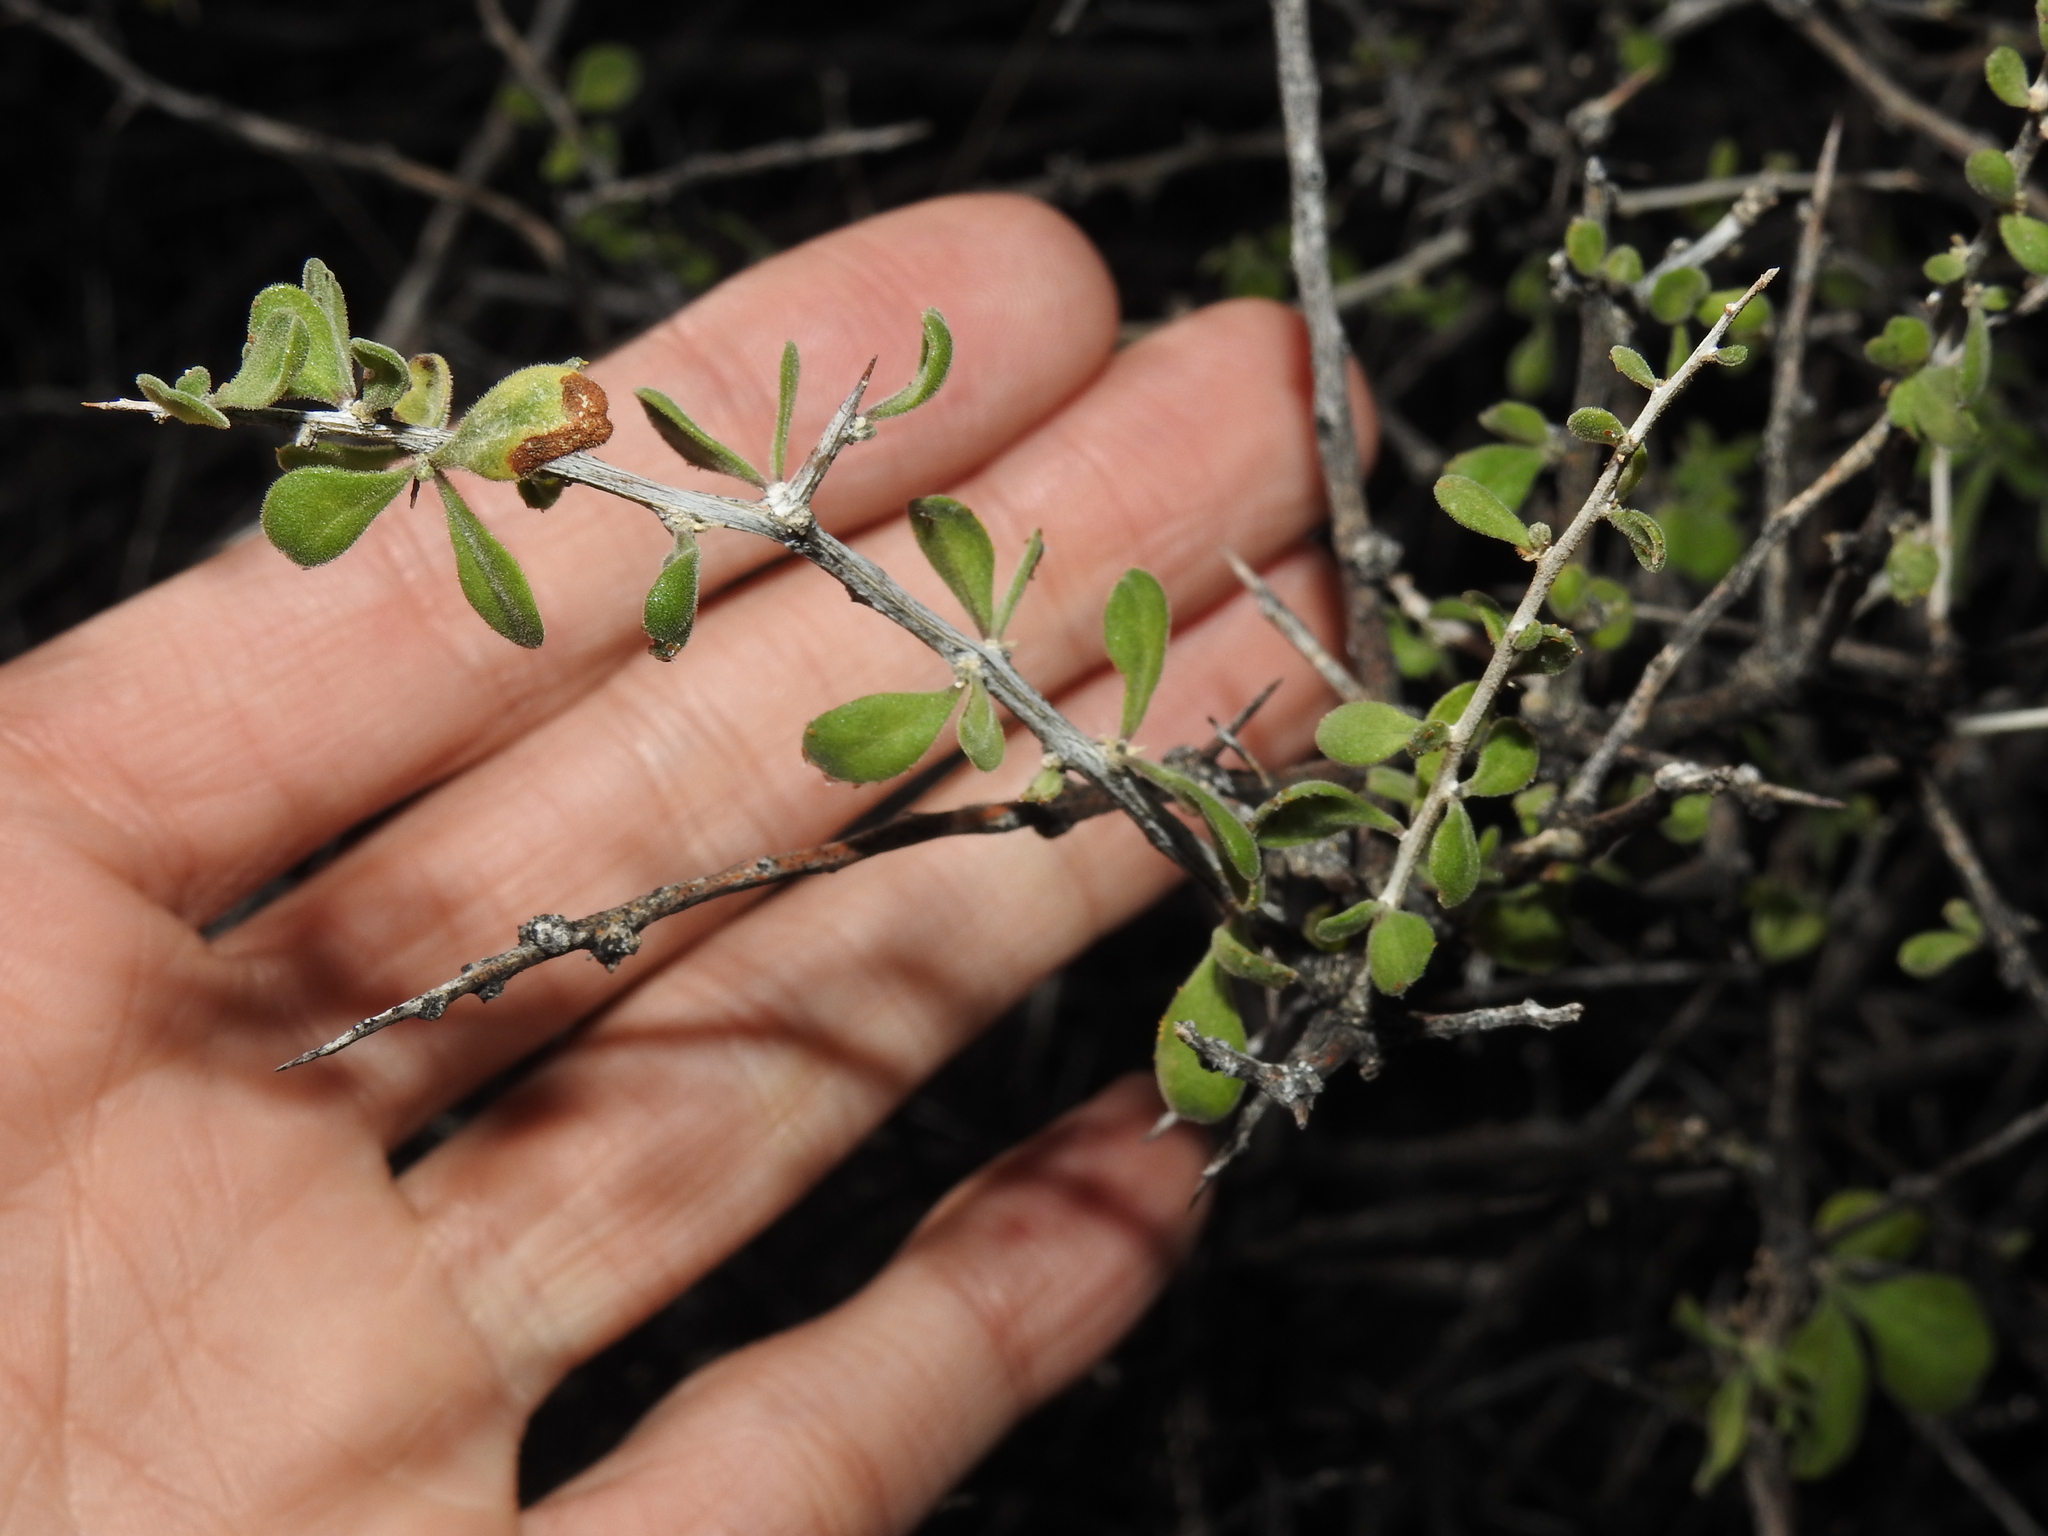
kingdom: Plantae
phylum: Tracheophyta
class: Magnoliopsida
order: Solanales
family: Solanaceae
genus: Lycium
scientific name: Lycium exsertum
